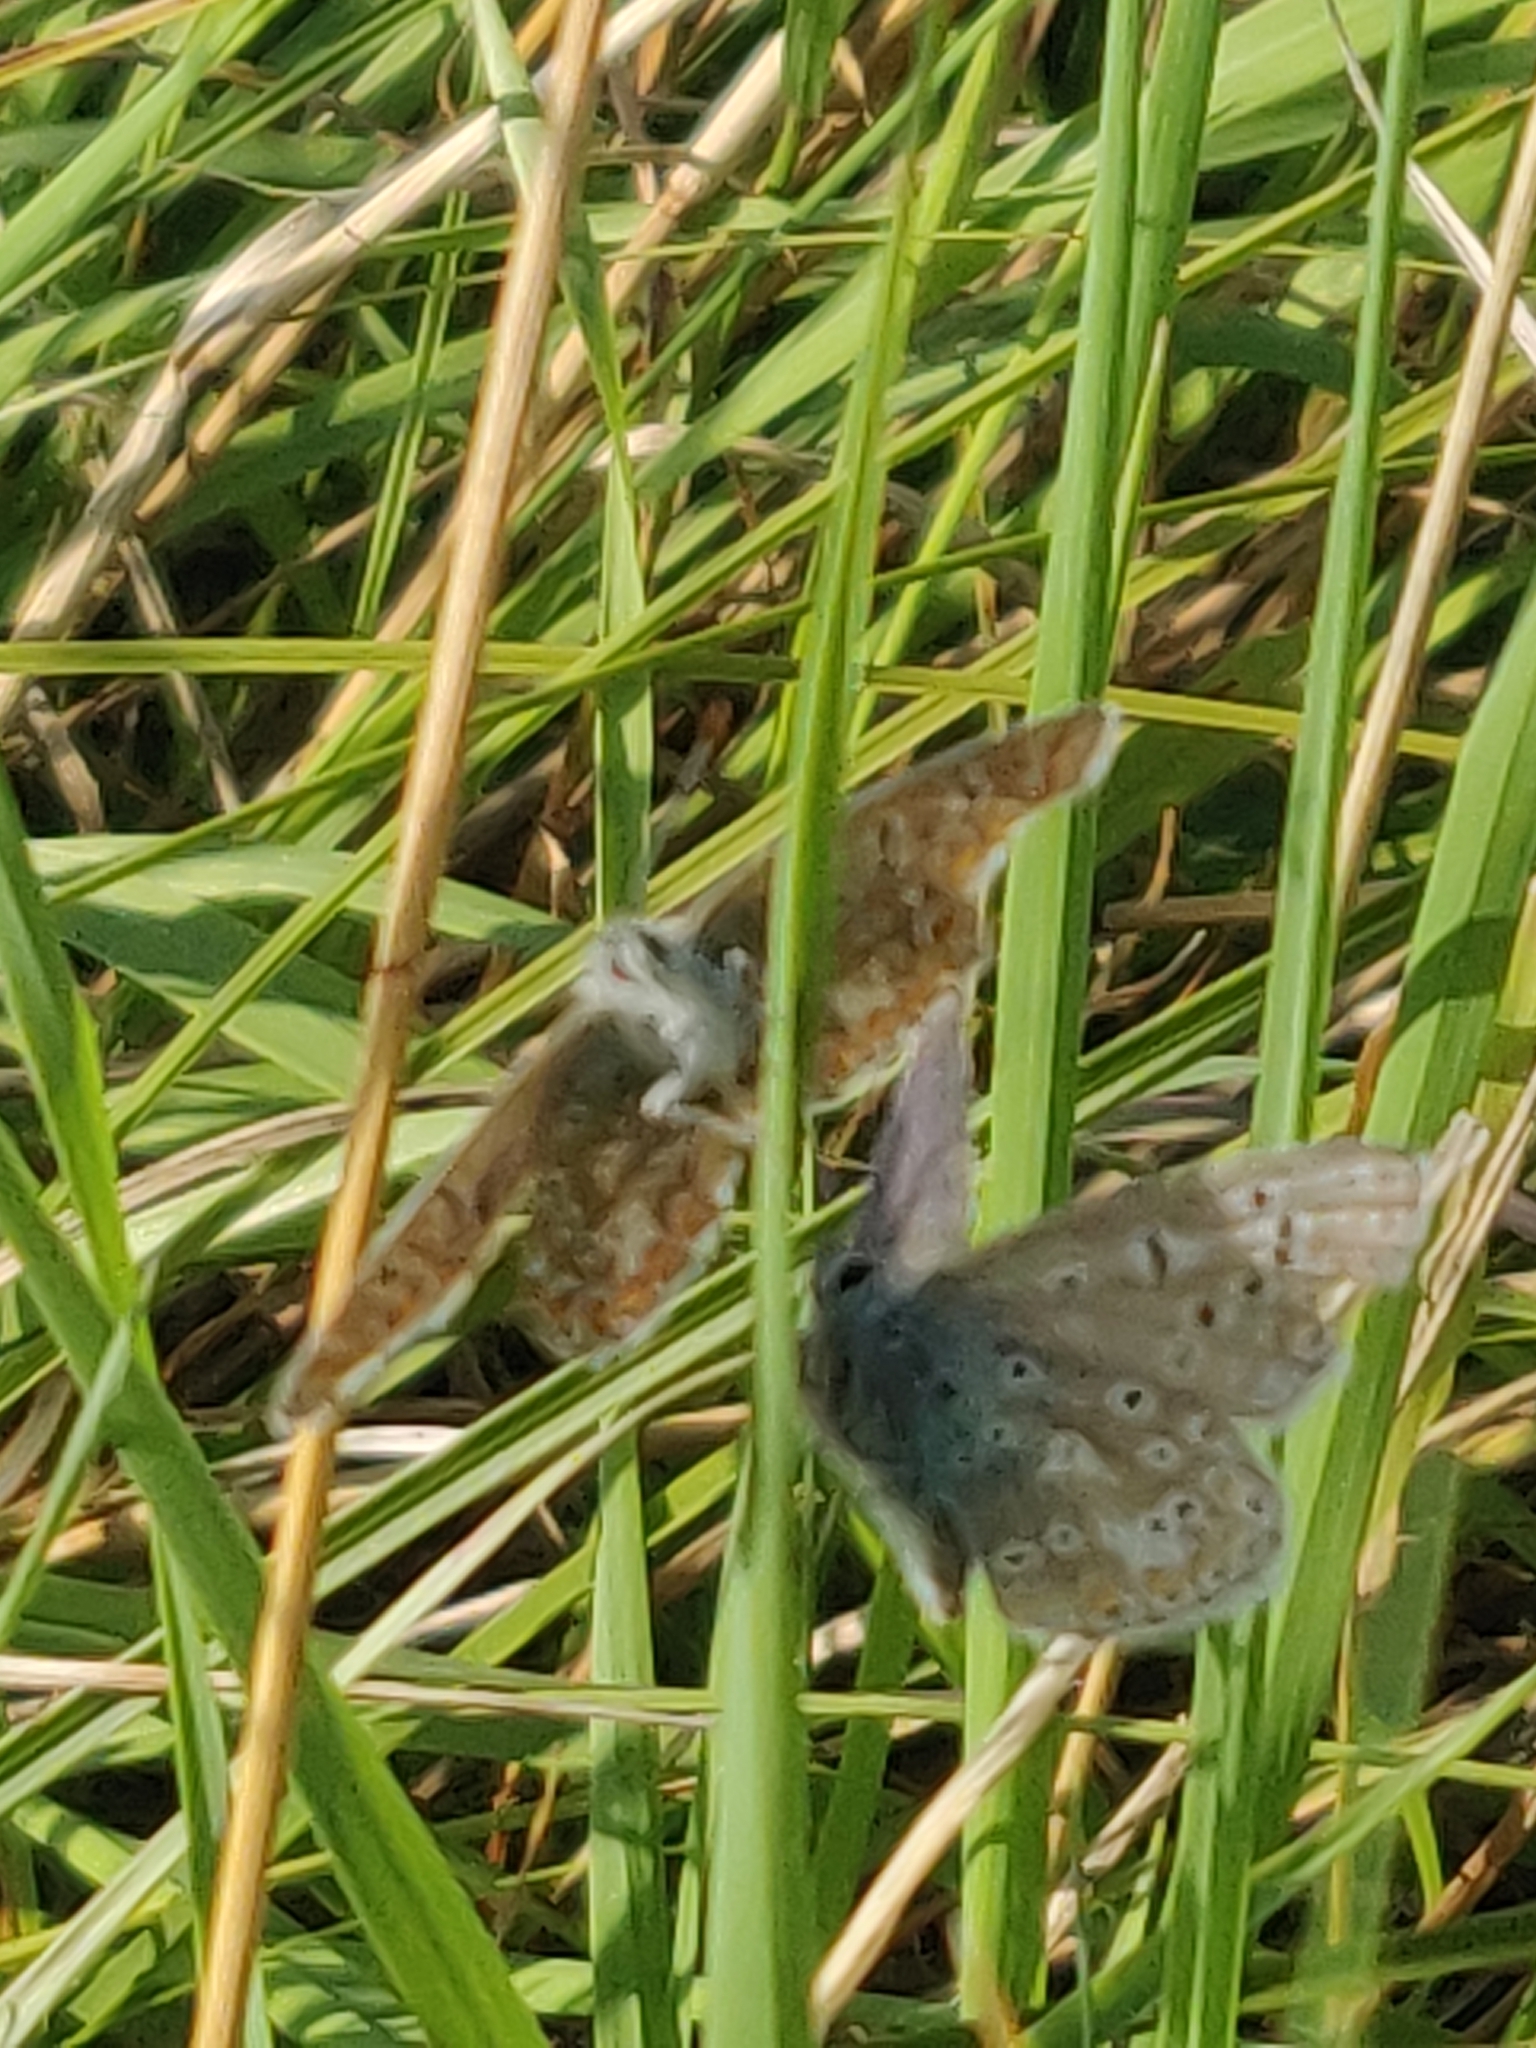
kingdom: Animalia
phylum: Arthropoda
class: Insecta
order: Lepidoptera
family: Lycaenidae
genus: Polyommatus
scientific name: Polyommatus icarus
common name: Common blue
